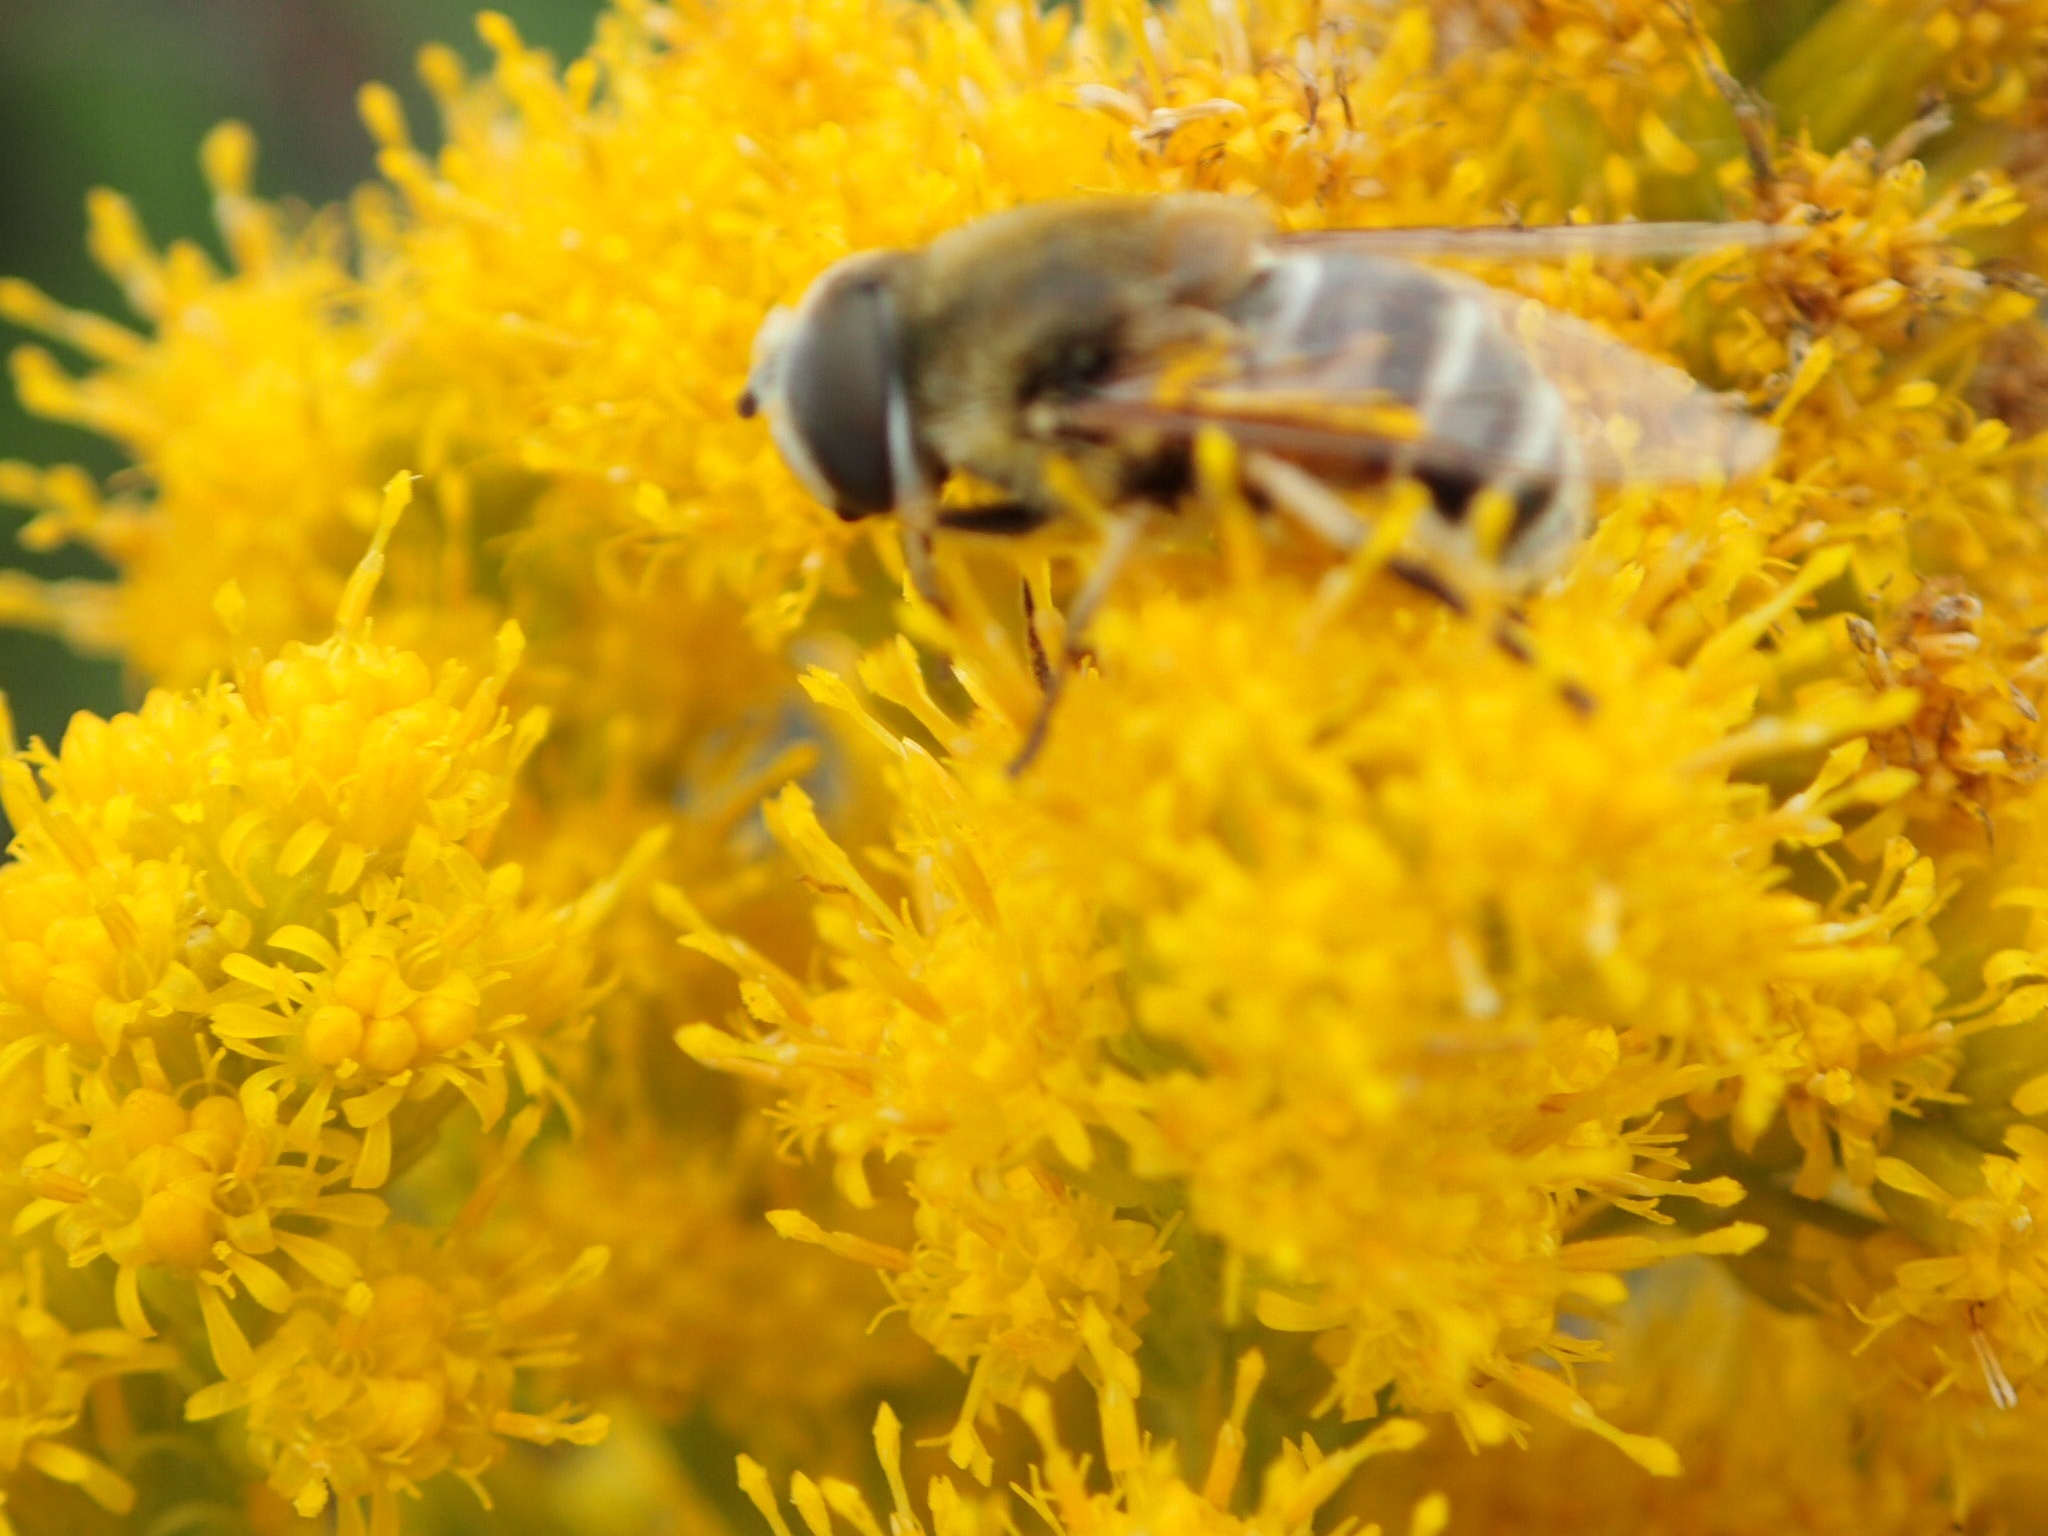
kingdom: Animalia
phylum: Arthropoda
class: Insecta
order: Diptera
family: Syrphidae
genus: Eristalis
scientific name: Eristalis stipator
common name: Yellow-shouldered drone fly
